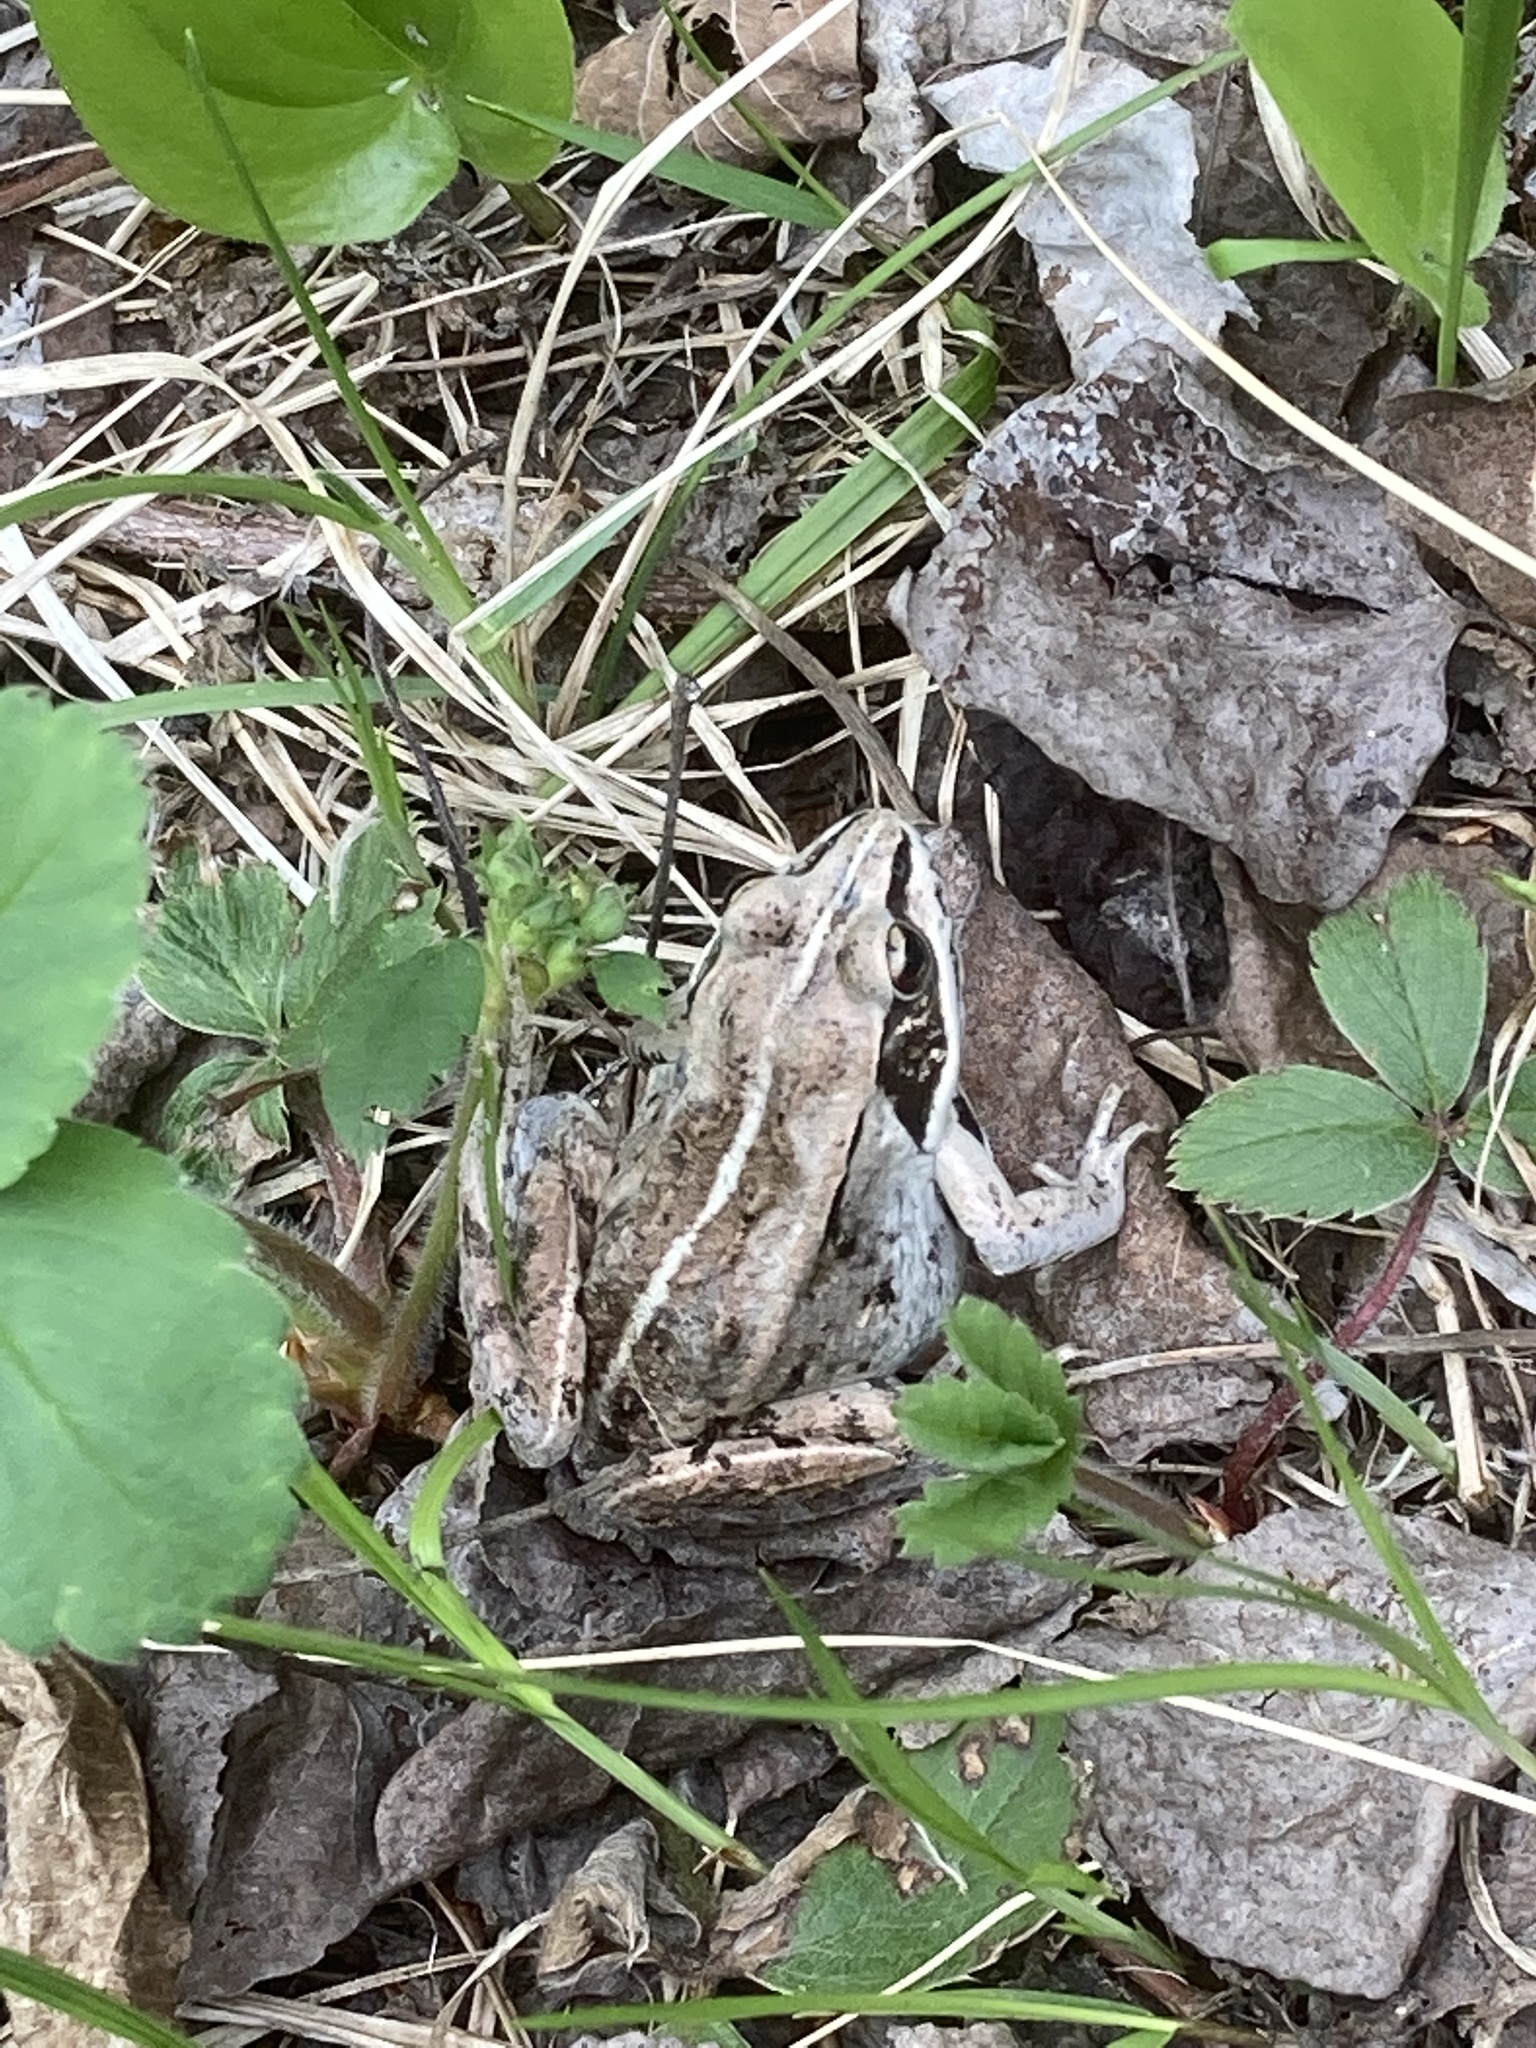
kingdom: Animalia
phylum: Chordata
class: Amphibia
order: Anura
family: Ranidae
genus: Lithobates
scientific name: Lithobates sylvaticus
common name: Wood frog
